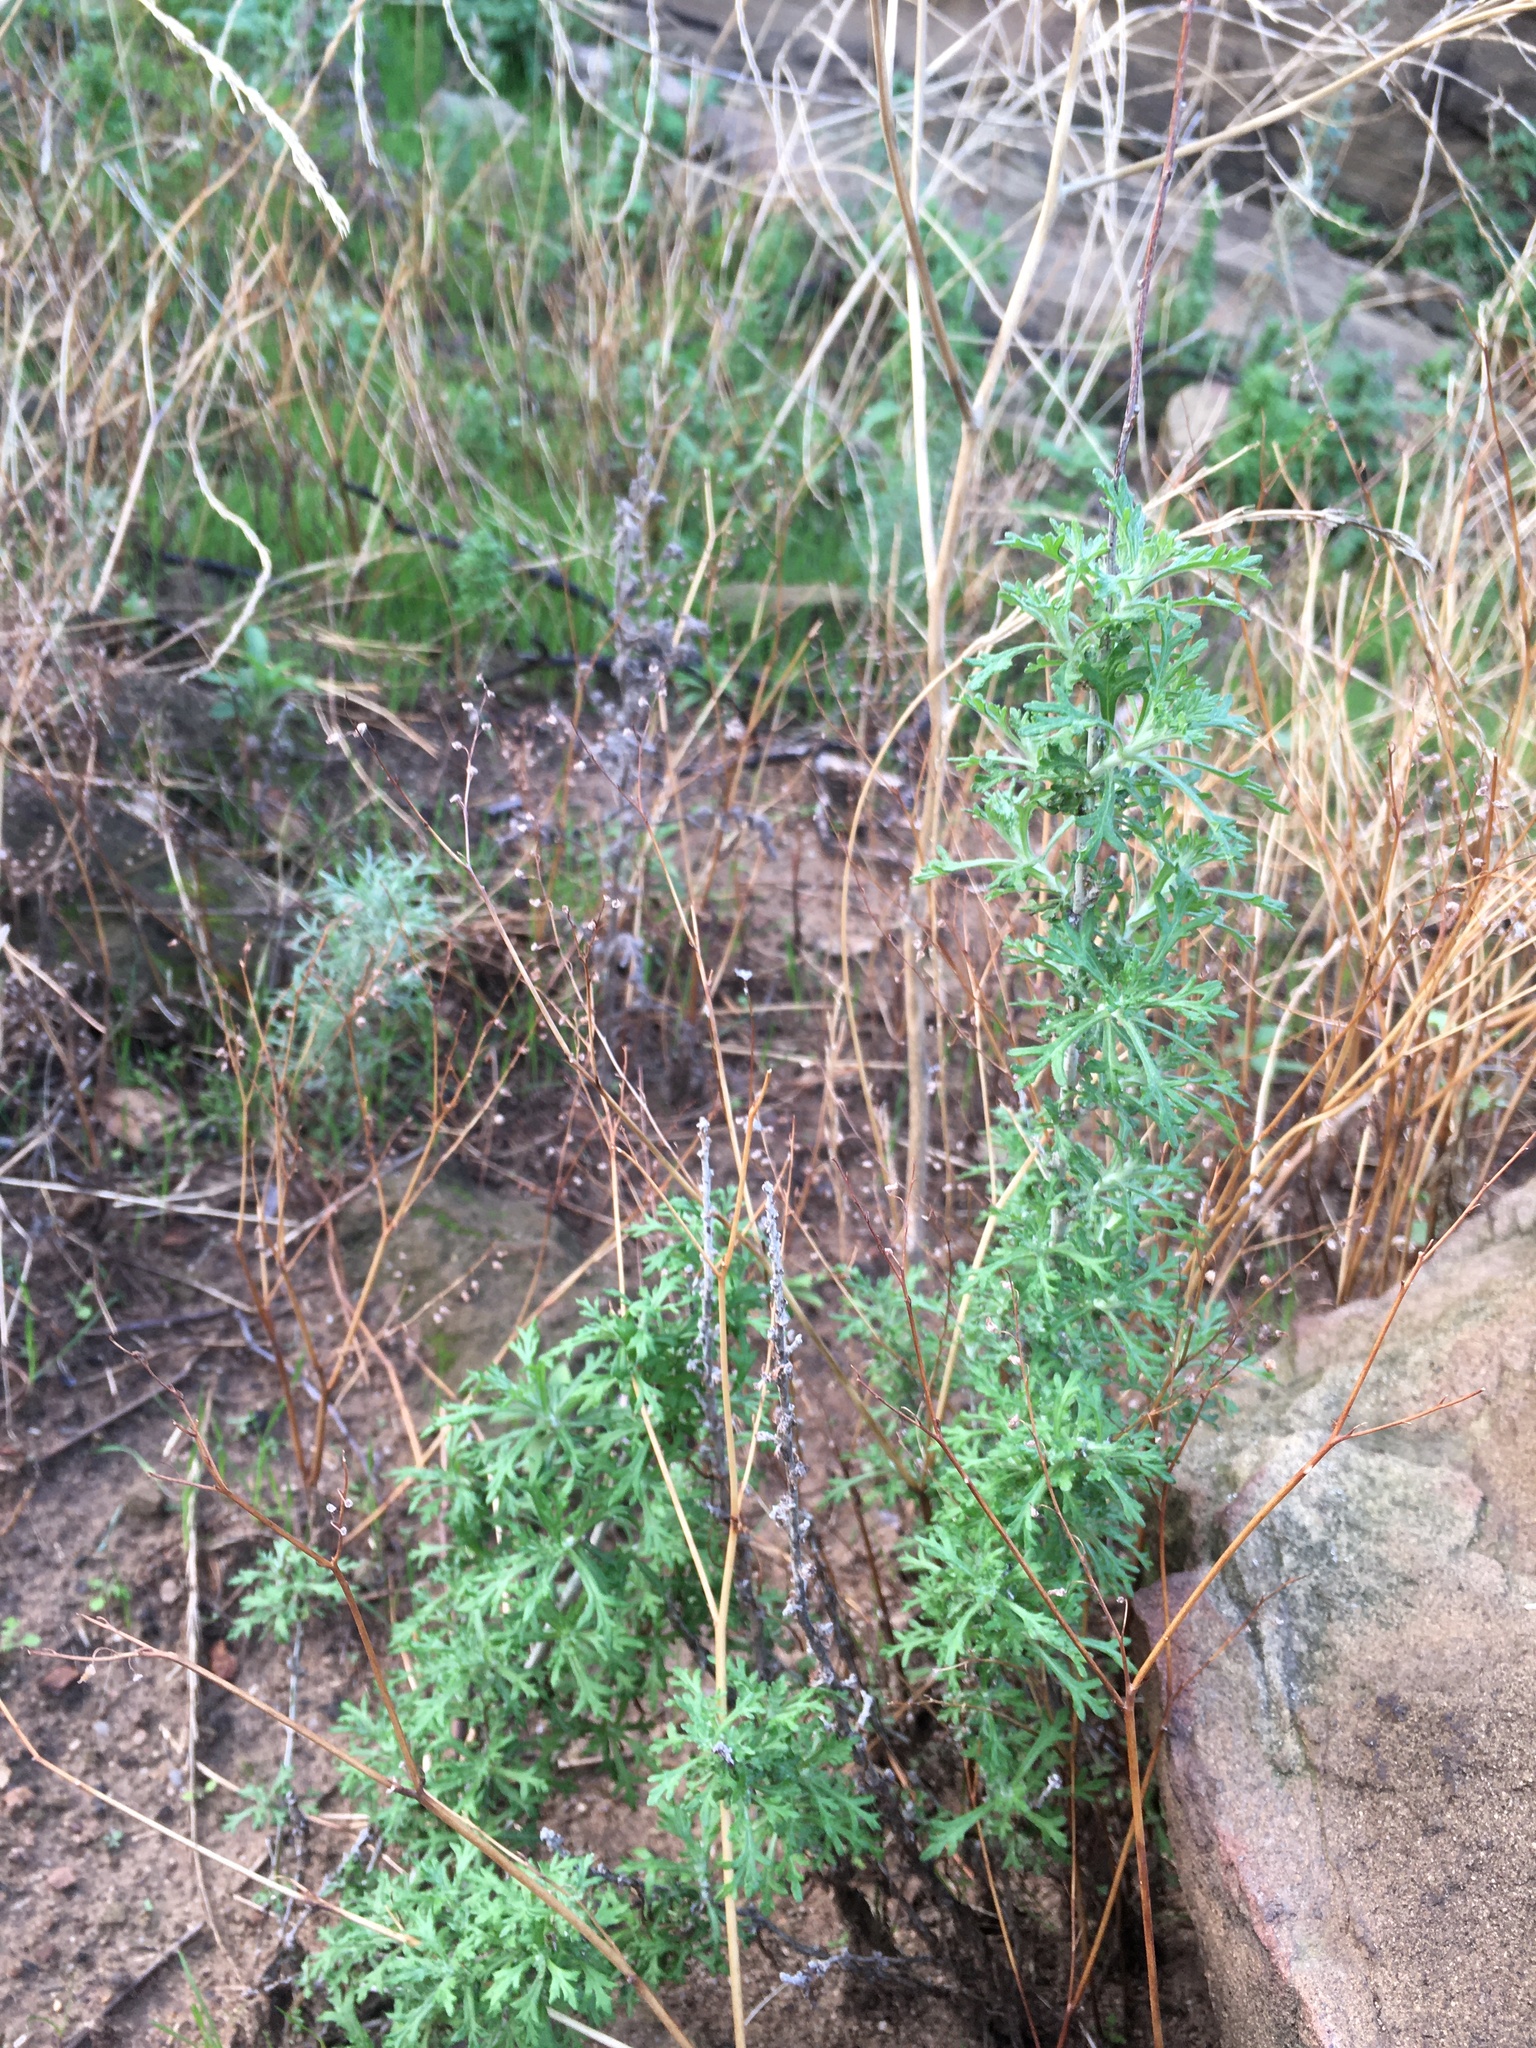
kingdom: Plantae
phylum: Tracheophyta
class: Magnoliopsida
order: Asterales
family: Asteraceae
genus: Eriophyllum
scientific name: Eriophyllum confertiflorum
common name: Golden-yarrow
